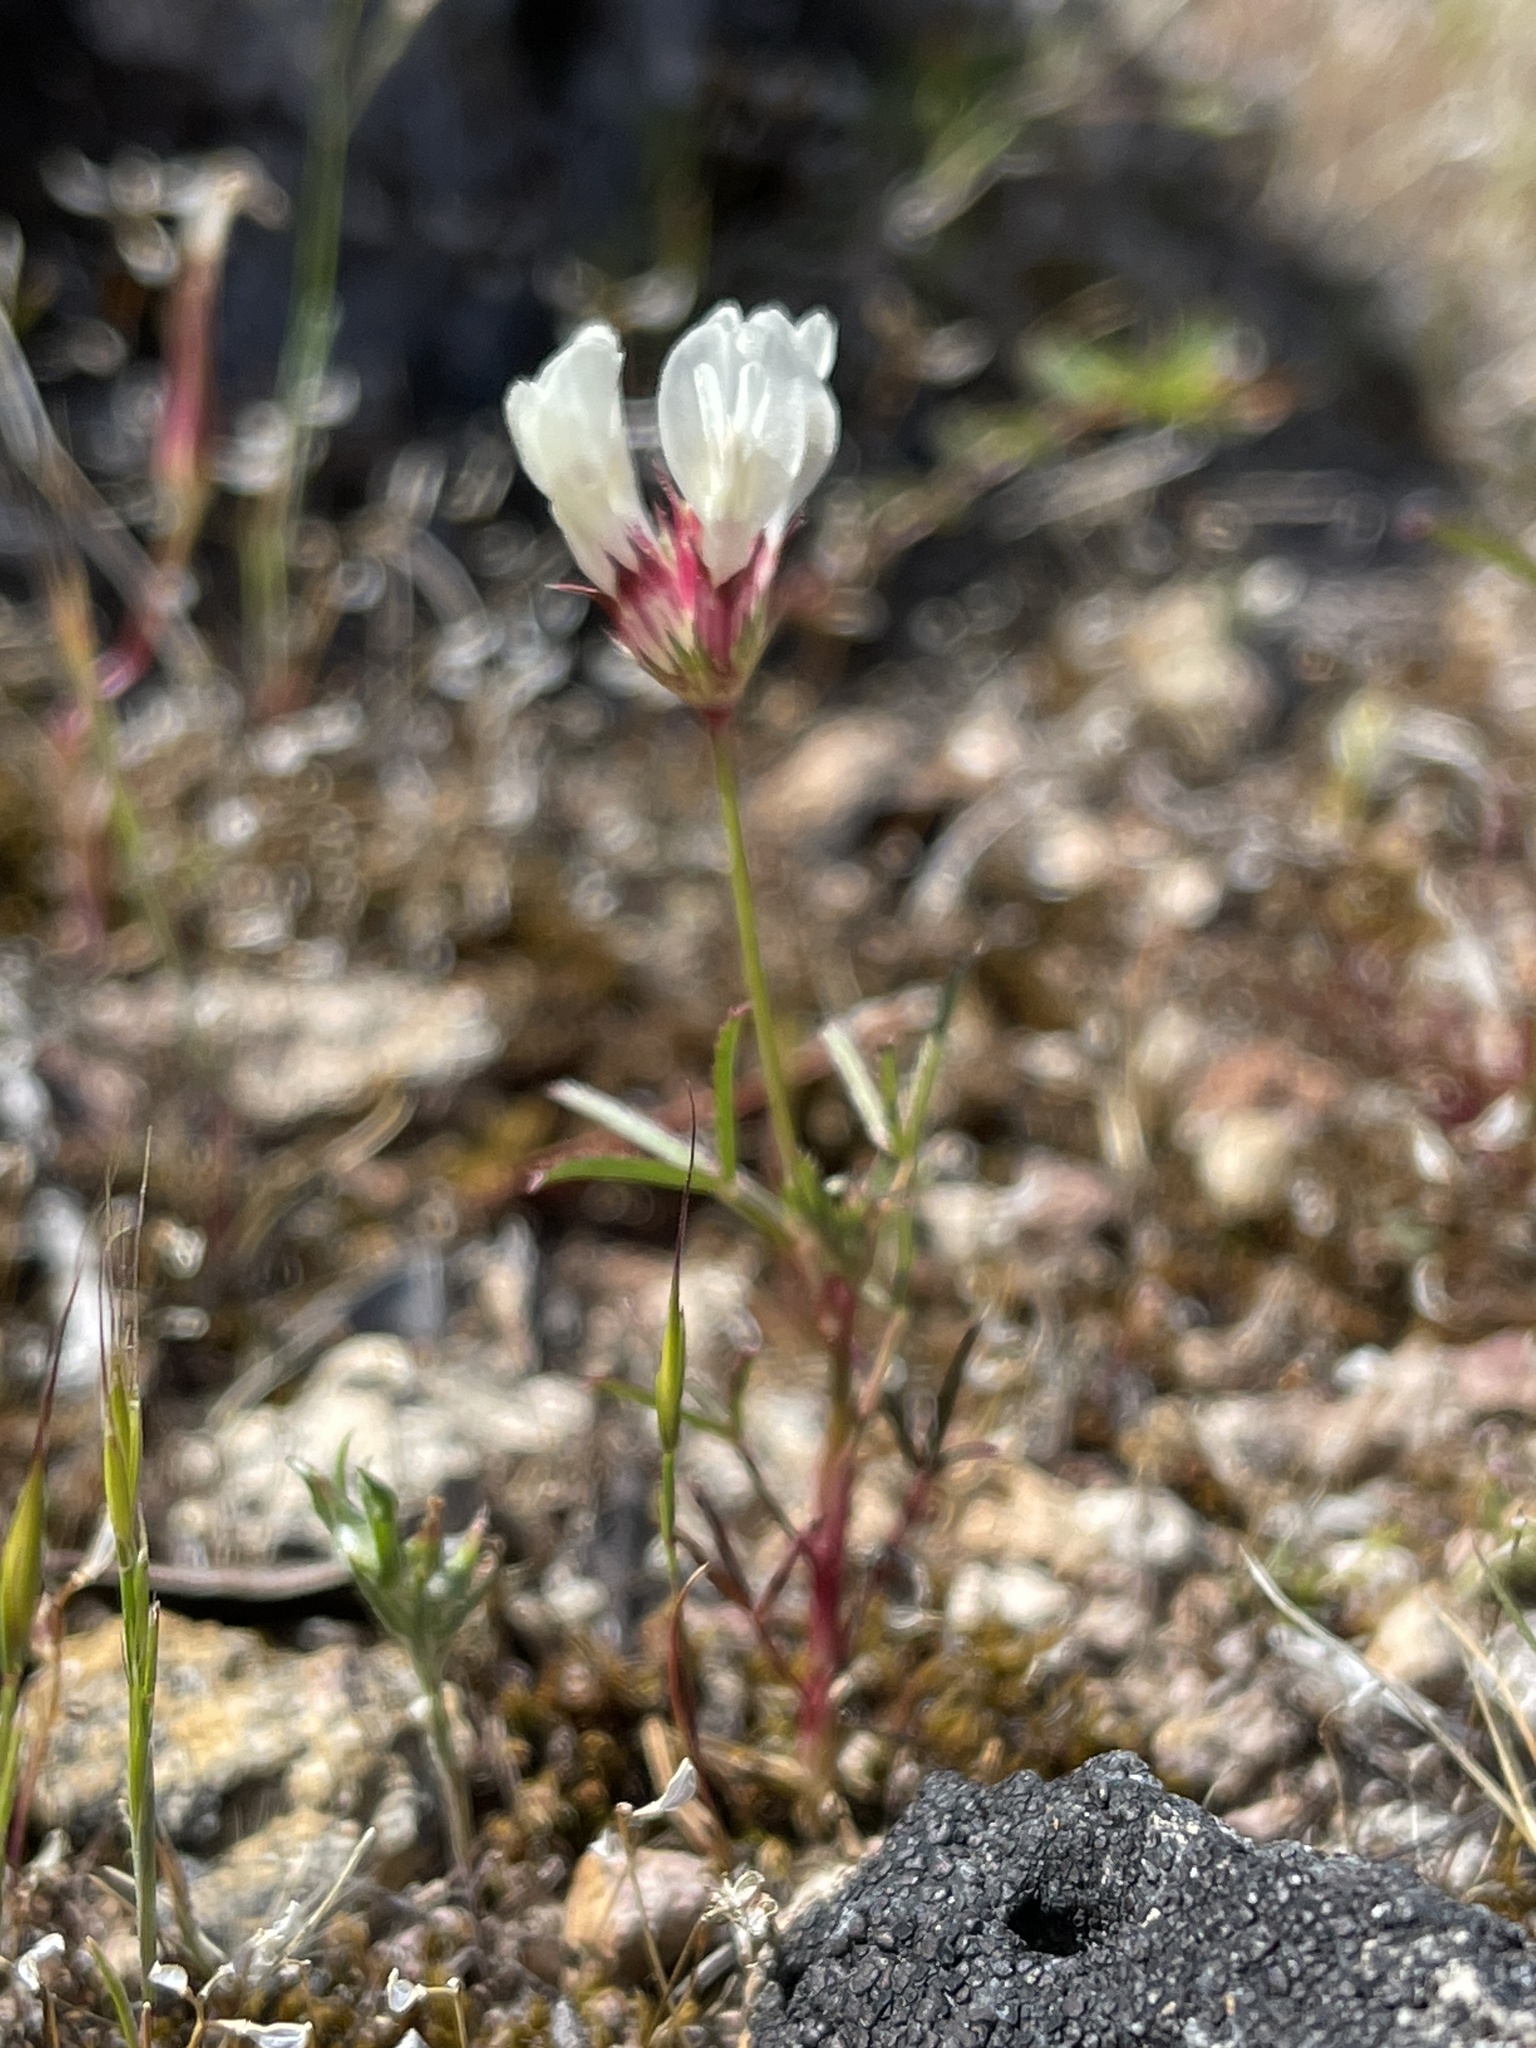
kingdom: Plantae
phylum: Tracheophyta
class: Magnoliopsida
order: Fabales
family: Fabaceae
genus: Trifolium
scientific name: Trifolium willdenovii
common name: Tomcat clover
